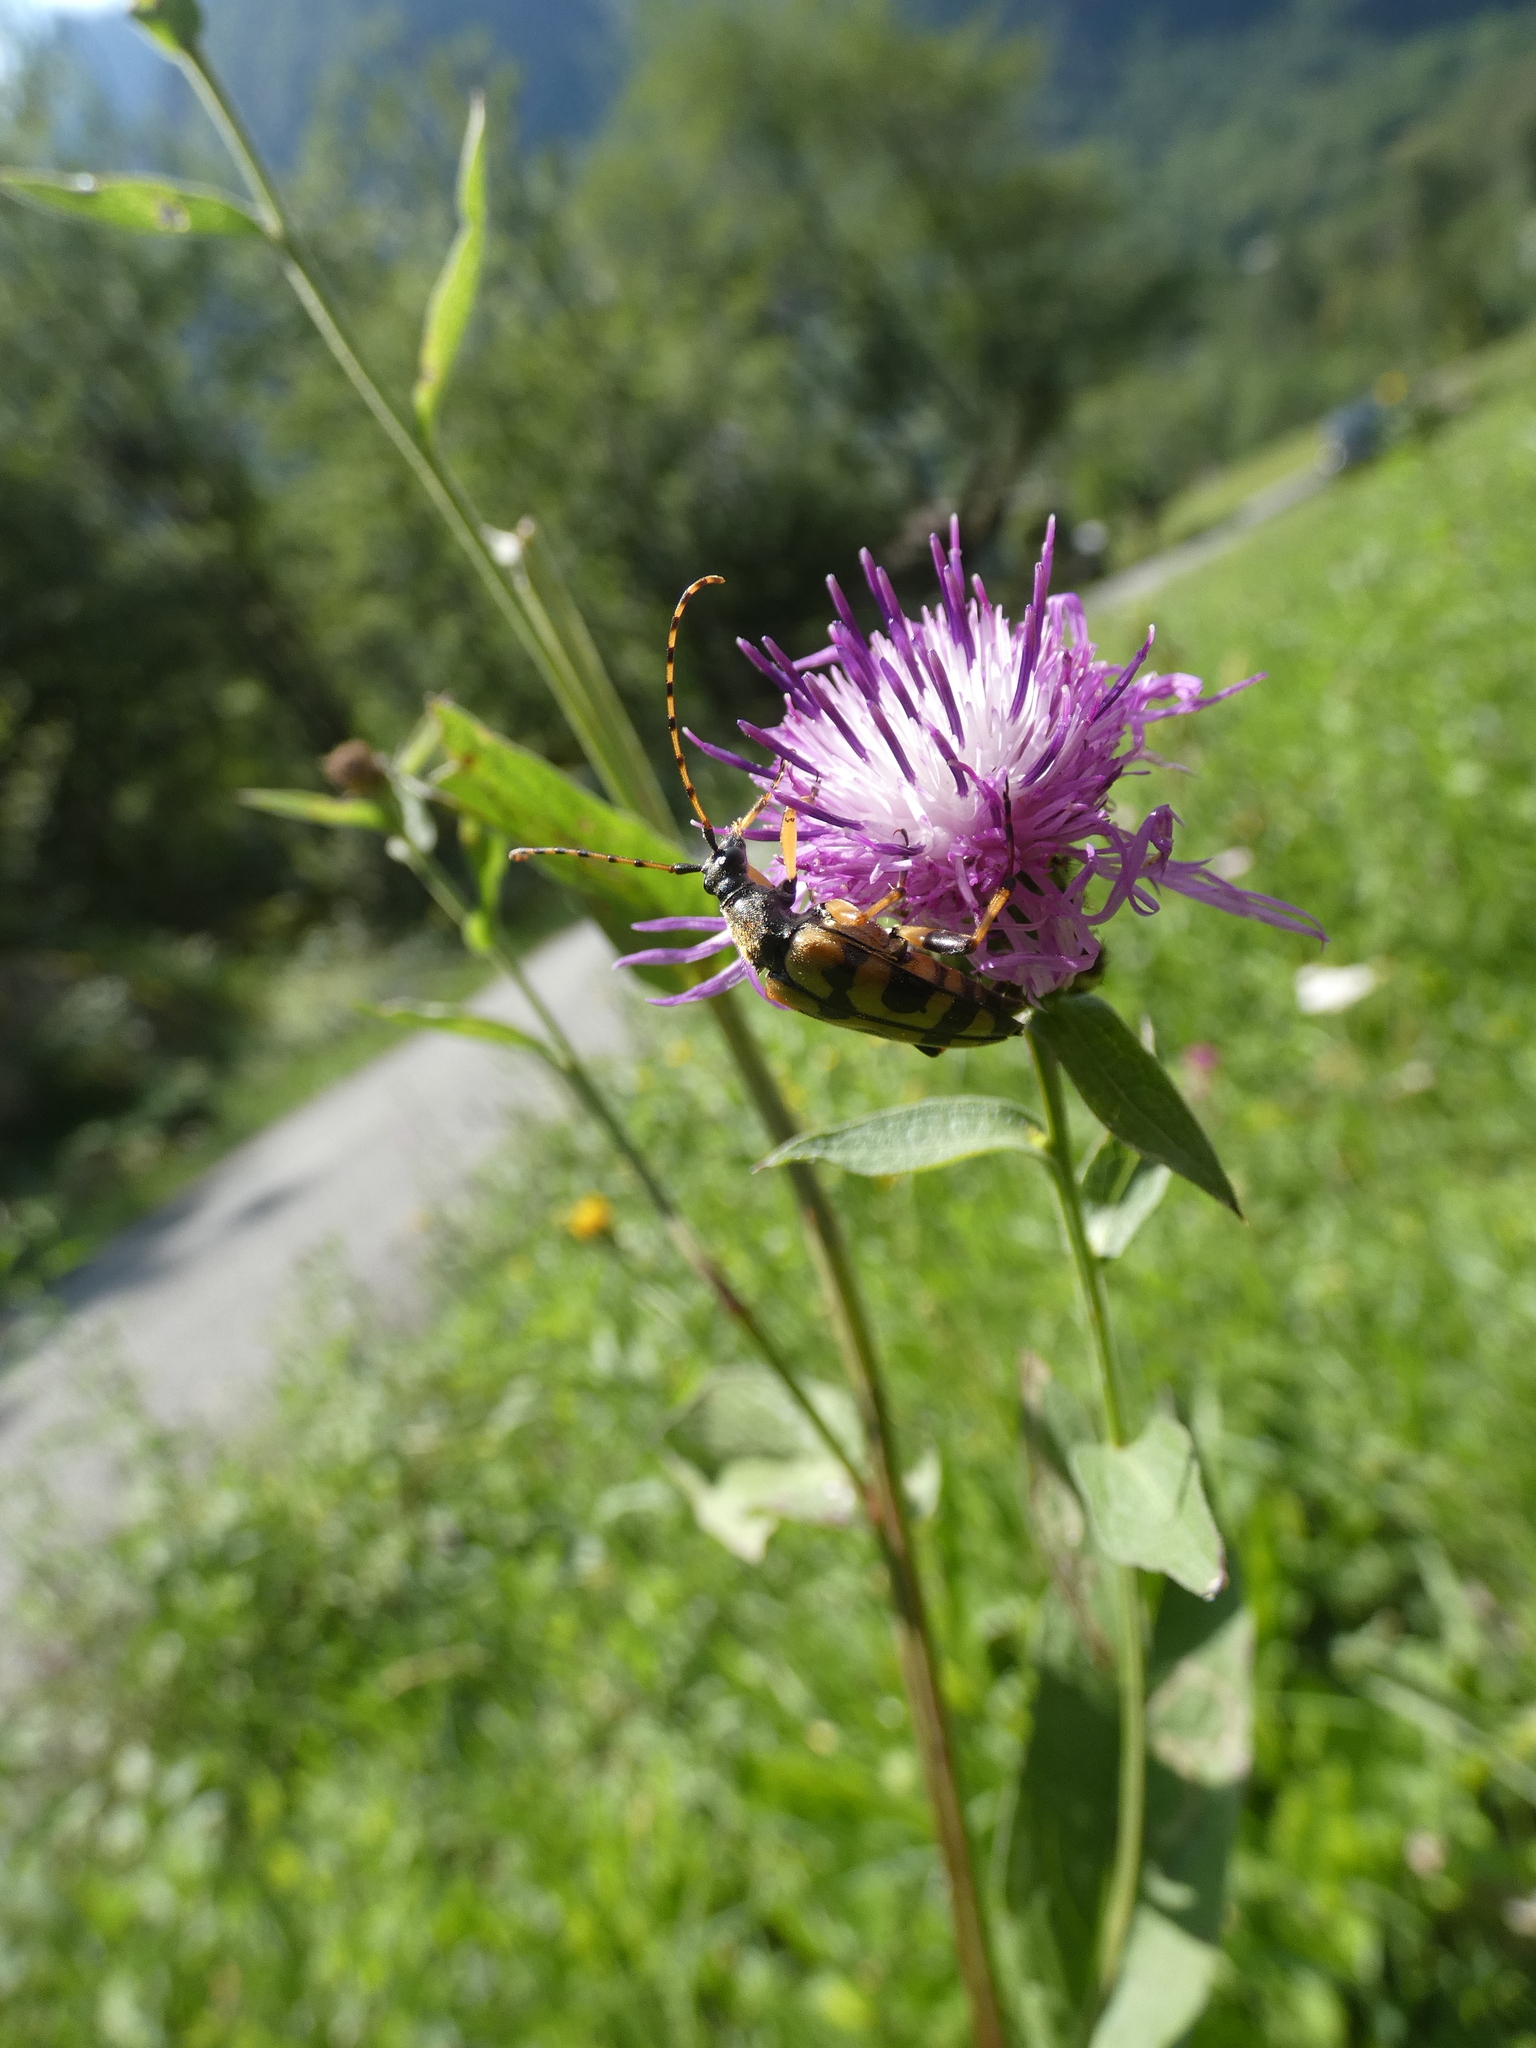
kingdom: Animalia
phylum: Arthropoda
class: Insecta
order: Coleoptera
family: Cerambycidae
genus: Rutpela
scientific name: Rutpela maculata
